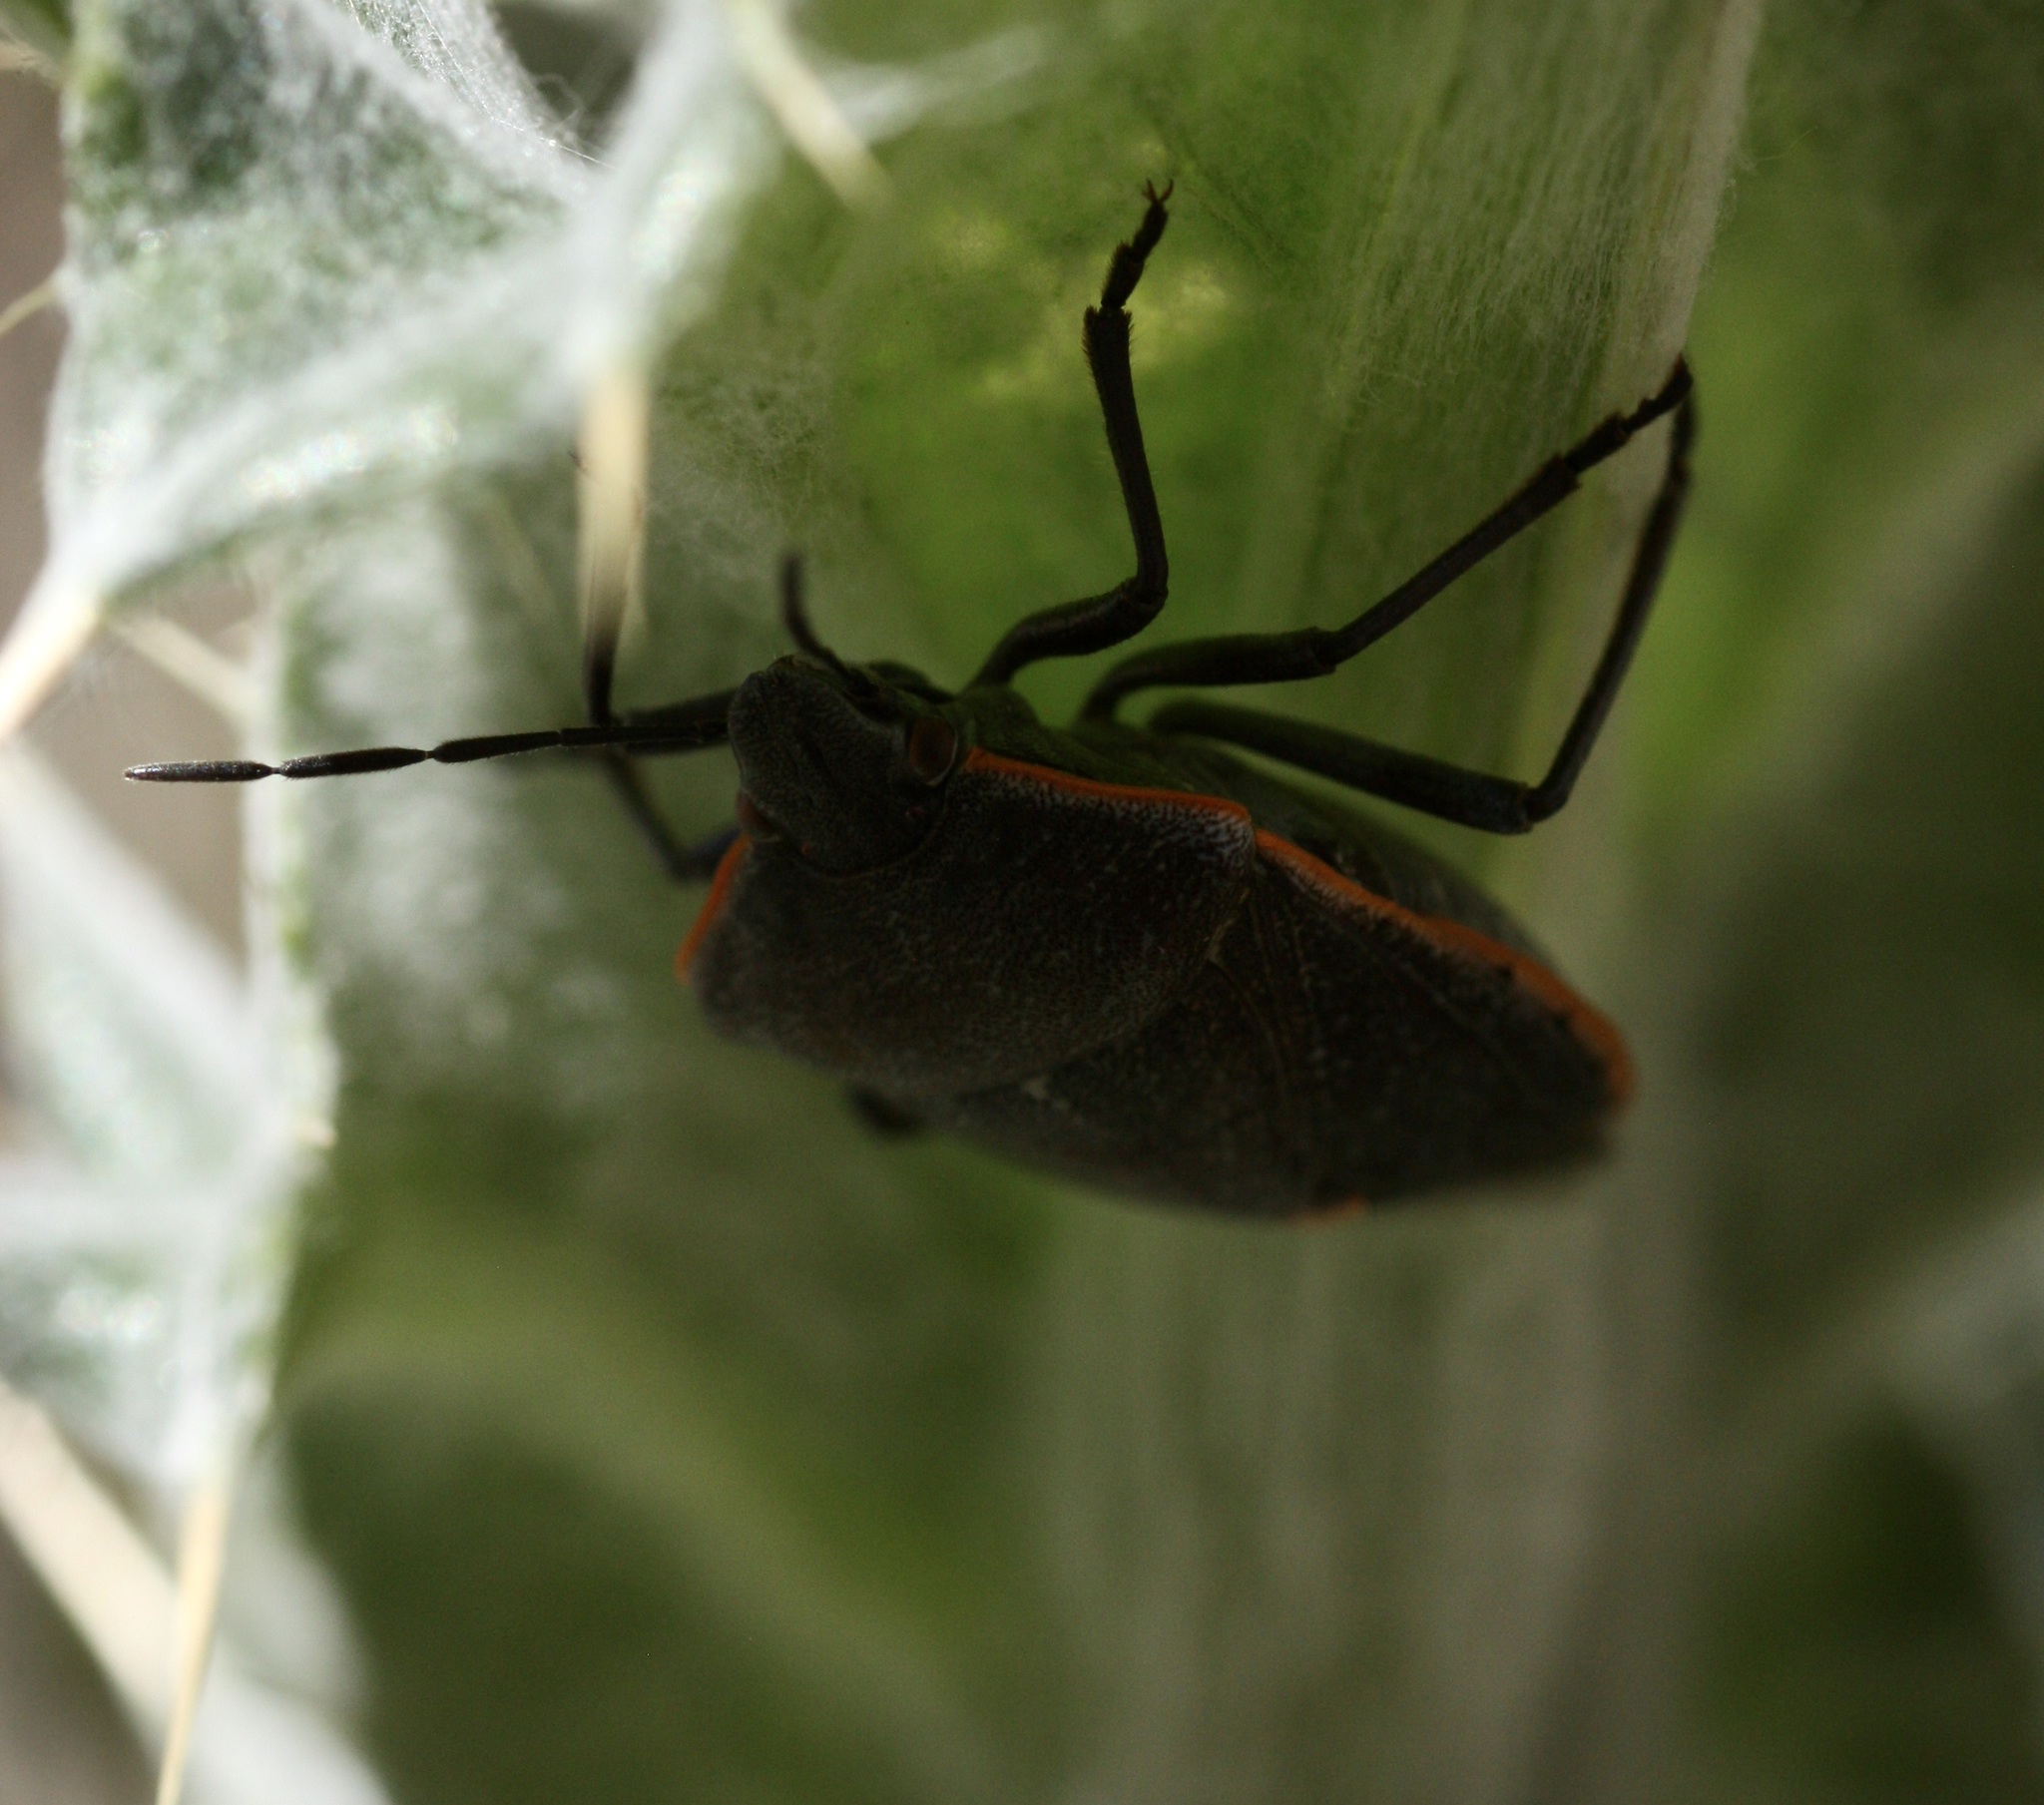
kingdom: Animalia
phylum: Arthropoda
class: Insecta
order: Hemiptera
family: Pentatomidae
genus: Chlorochroa
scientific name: Chlorochroa ligata
